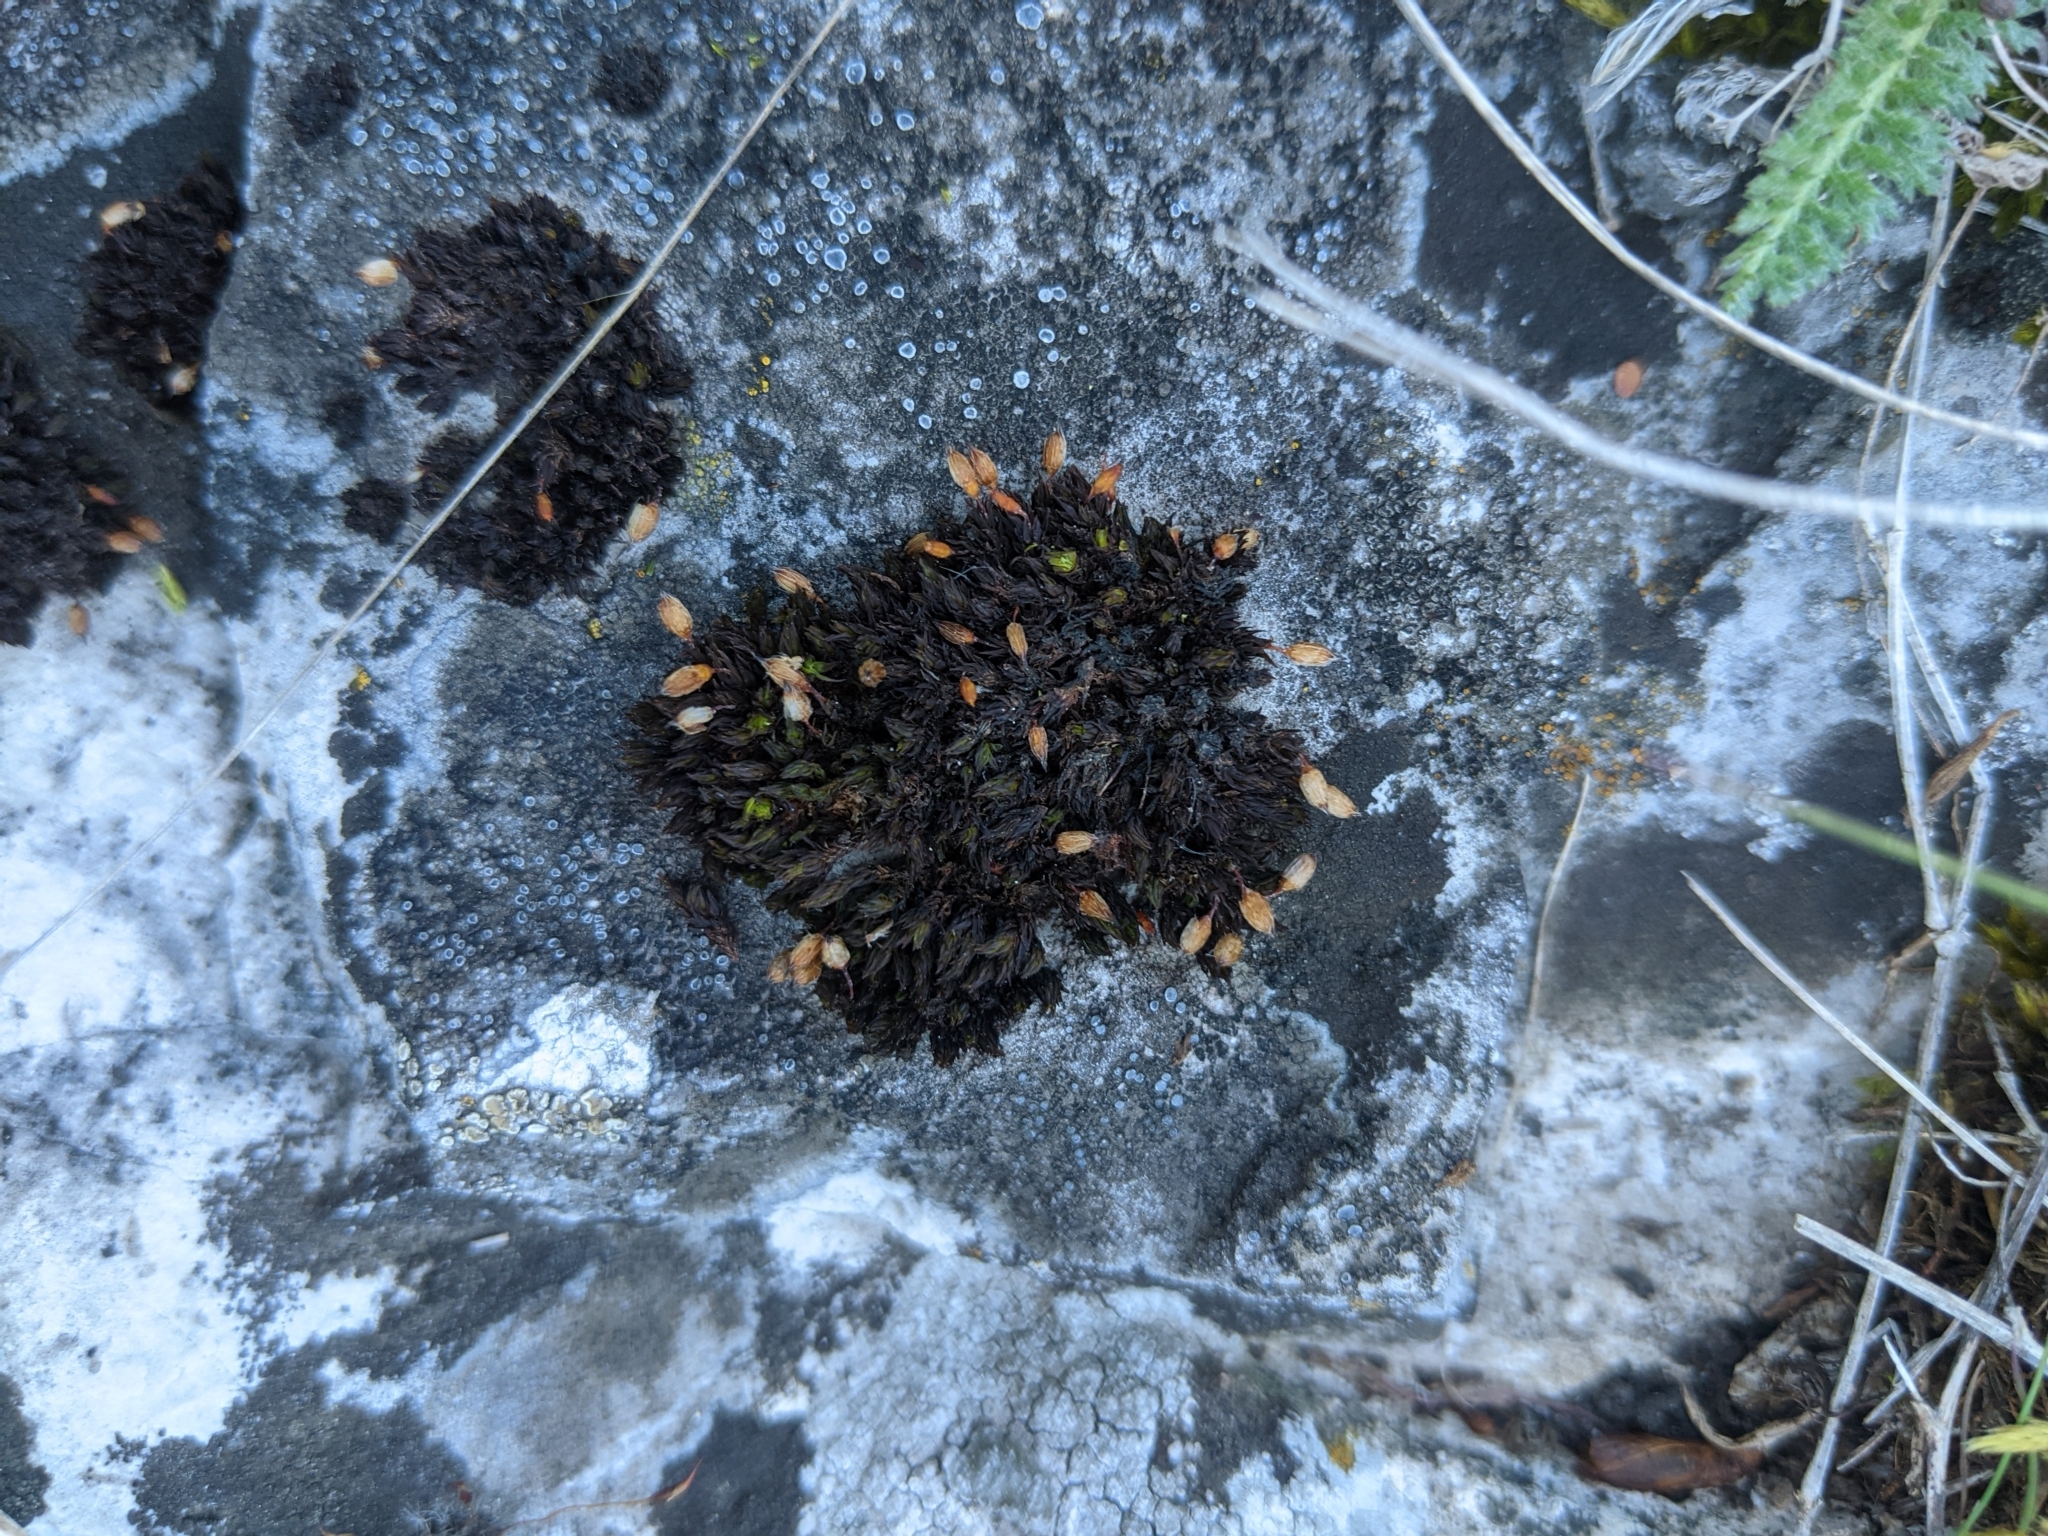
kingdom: Plantae
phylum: Bryophyta
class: Bryopsida
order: Orthotrichales
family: Orthotrichaceae
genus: Orthotrichum
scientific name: Orthotrichum anomalum
